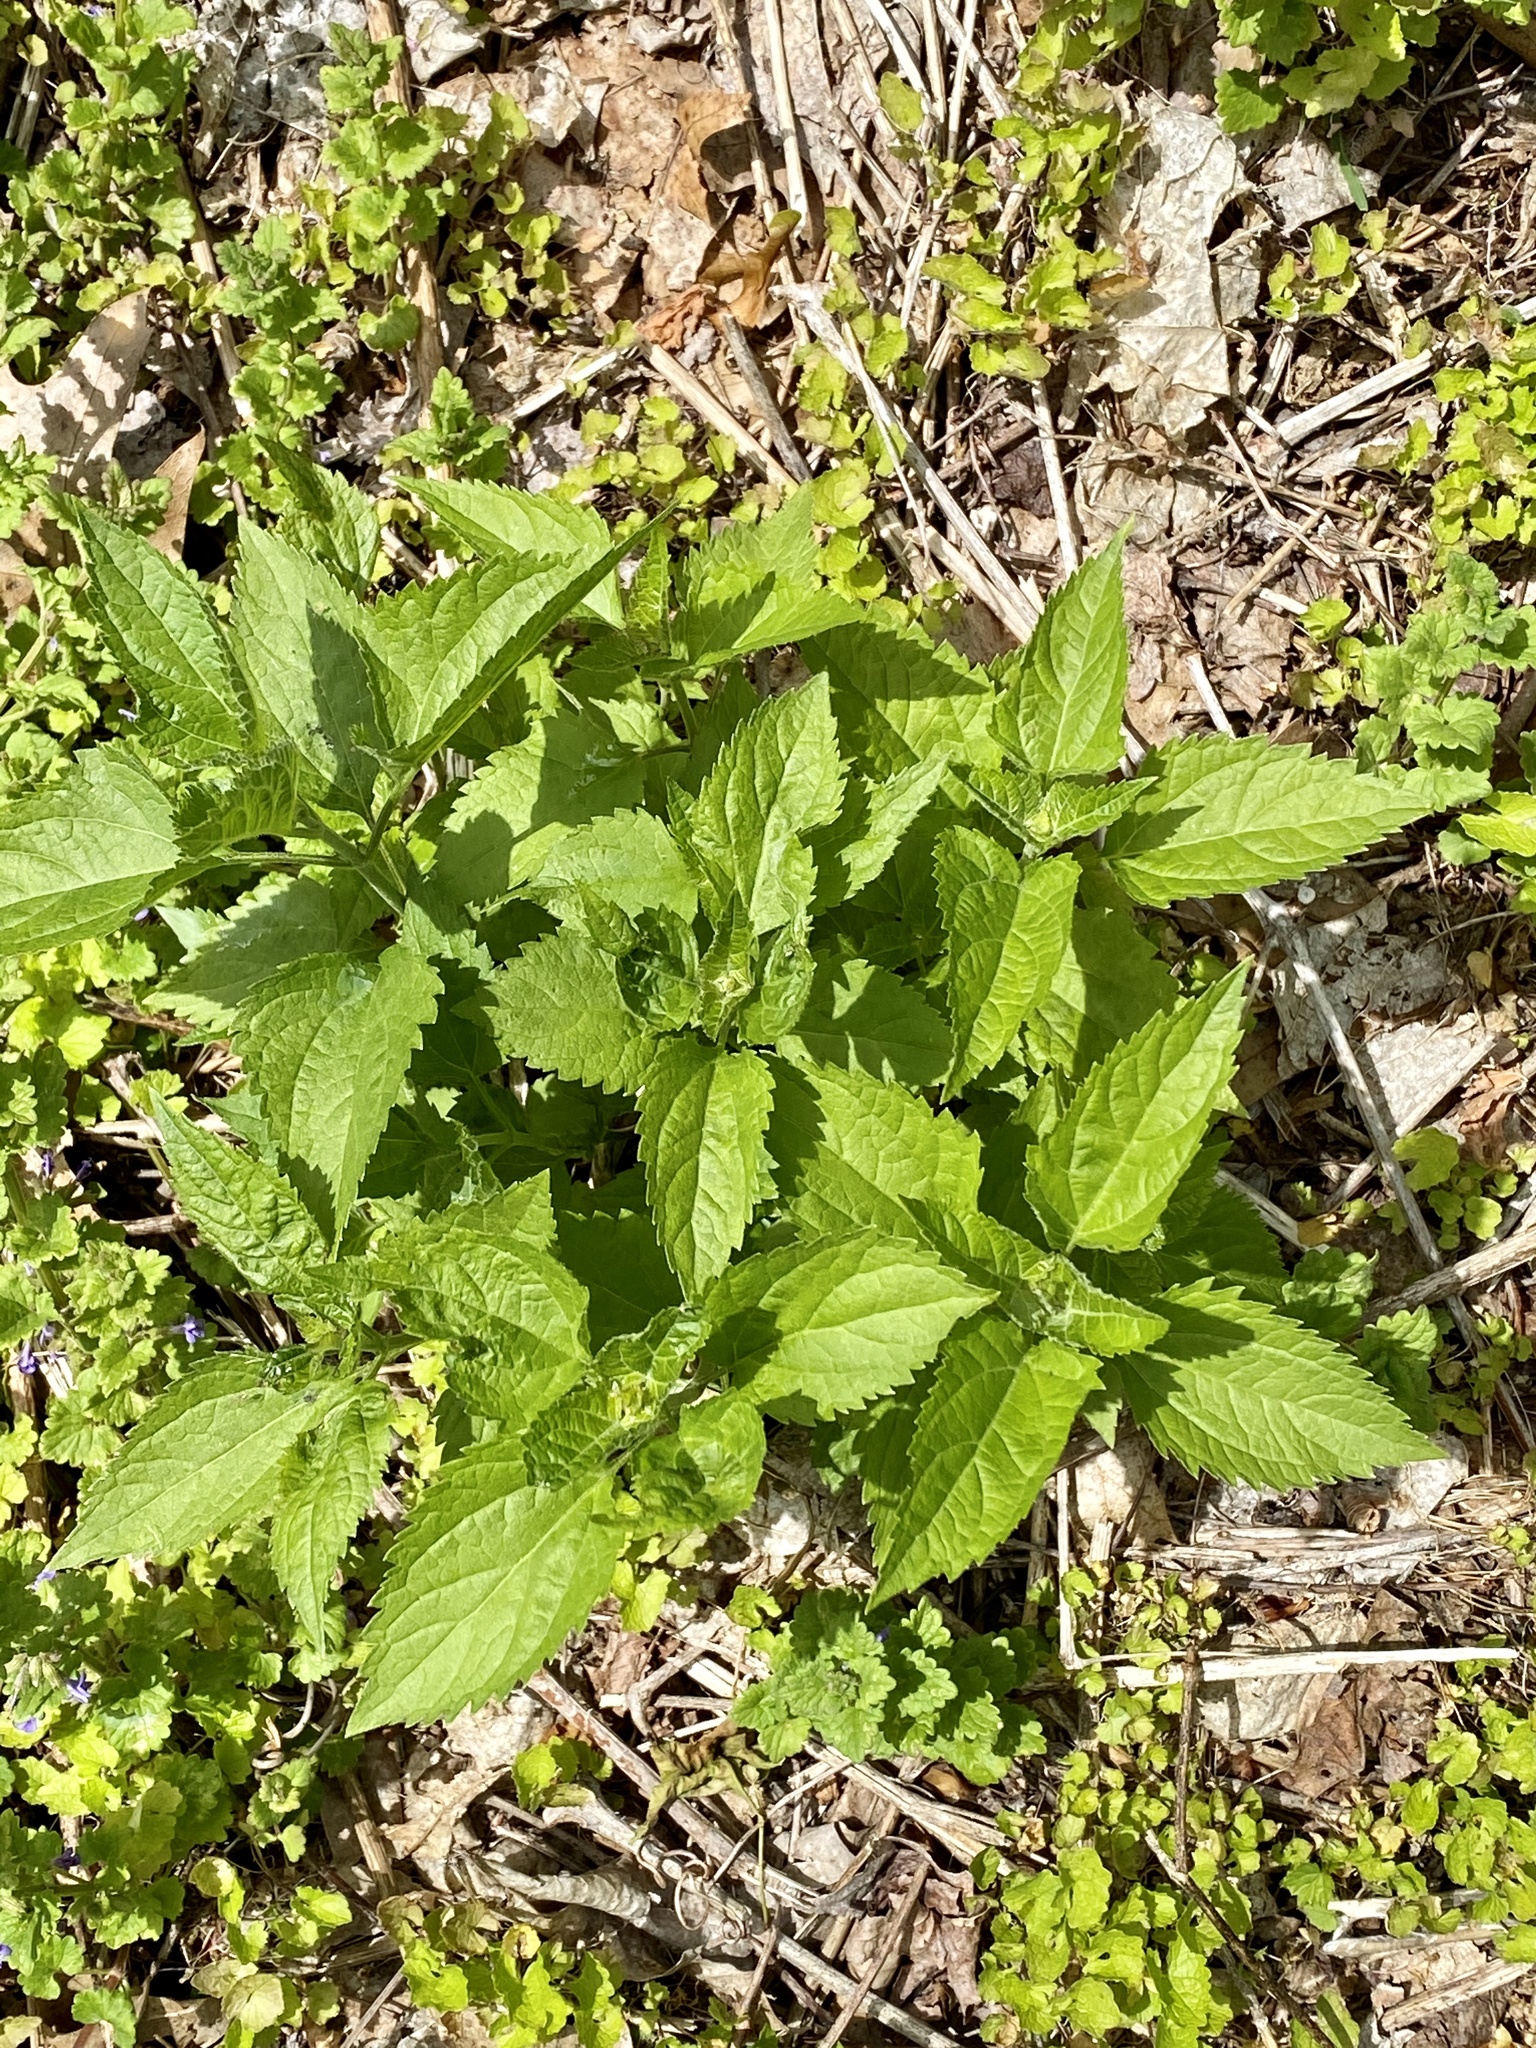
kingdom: Plantae
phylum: Tracheophyta
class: Magnoliopsida
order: Asterales
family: Asteraceae
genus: Ageratina
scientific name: Ageratina altissima
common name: White snakeroot
